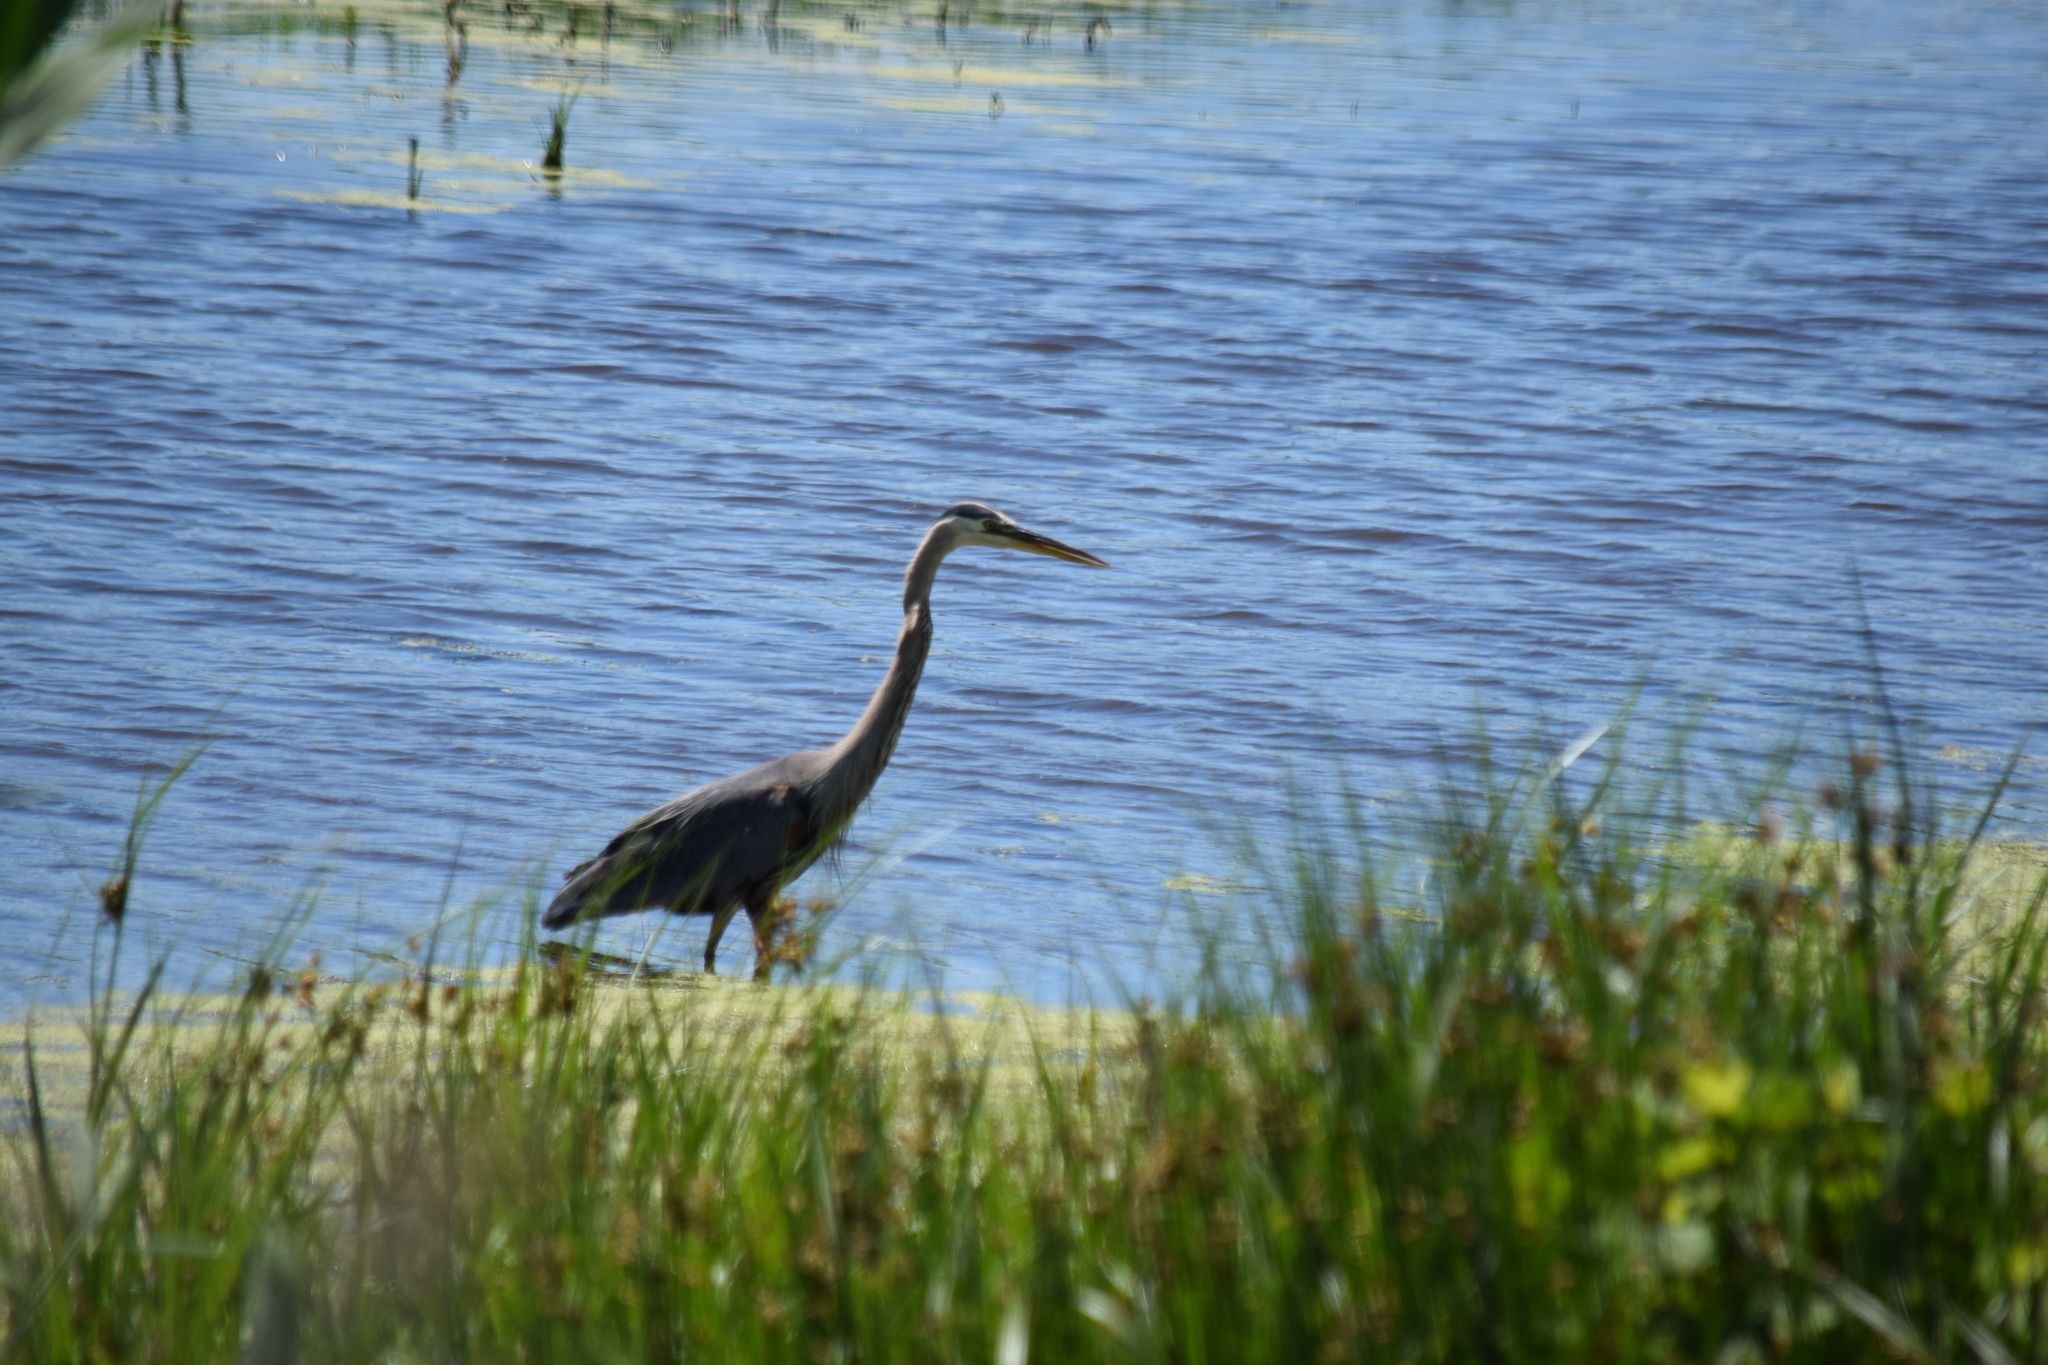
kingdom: Animalia
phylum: Chordata
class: Aves
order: Pelecaniformes
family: Ardeidae
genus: Ardea
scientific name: Ardea herodias
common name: Great blue heron
